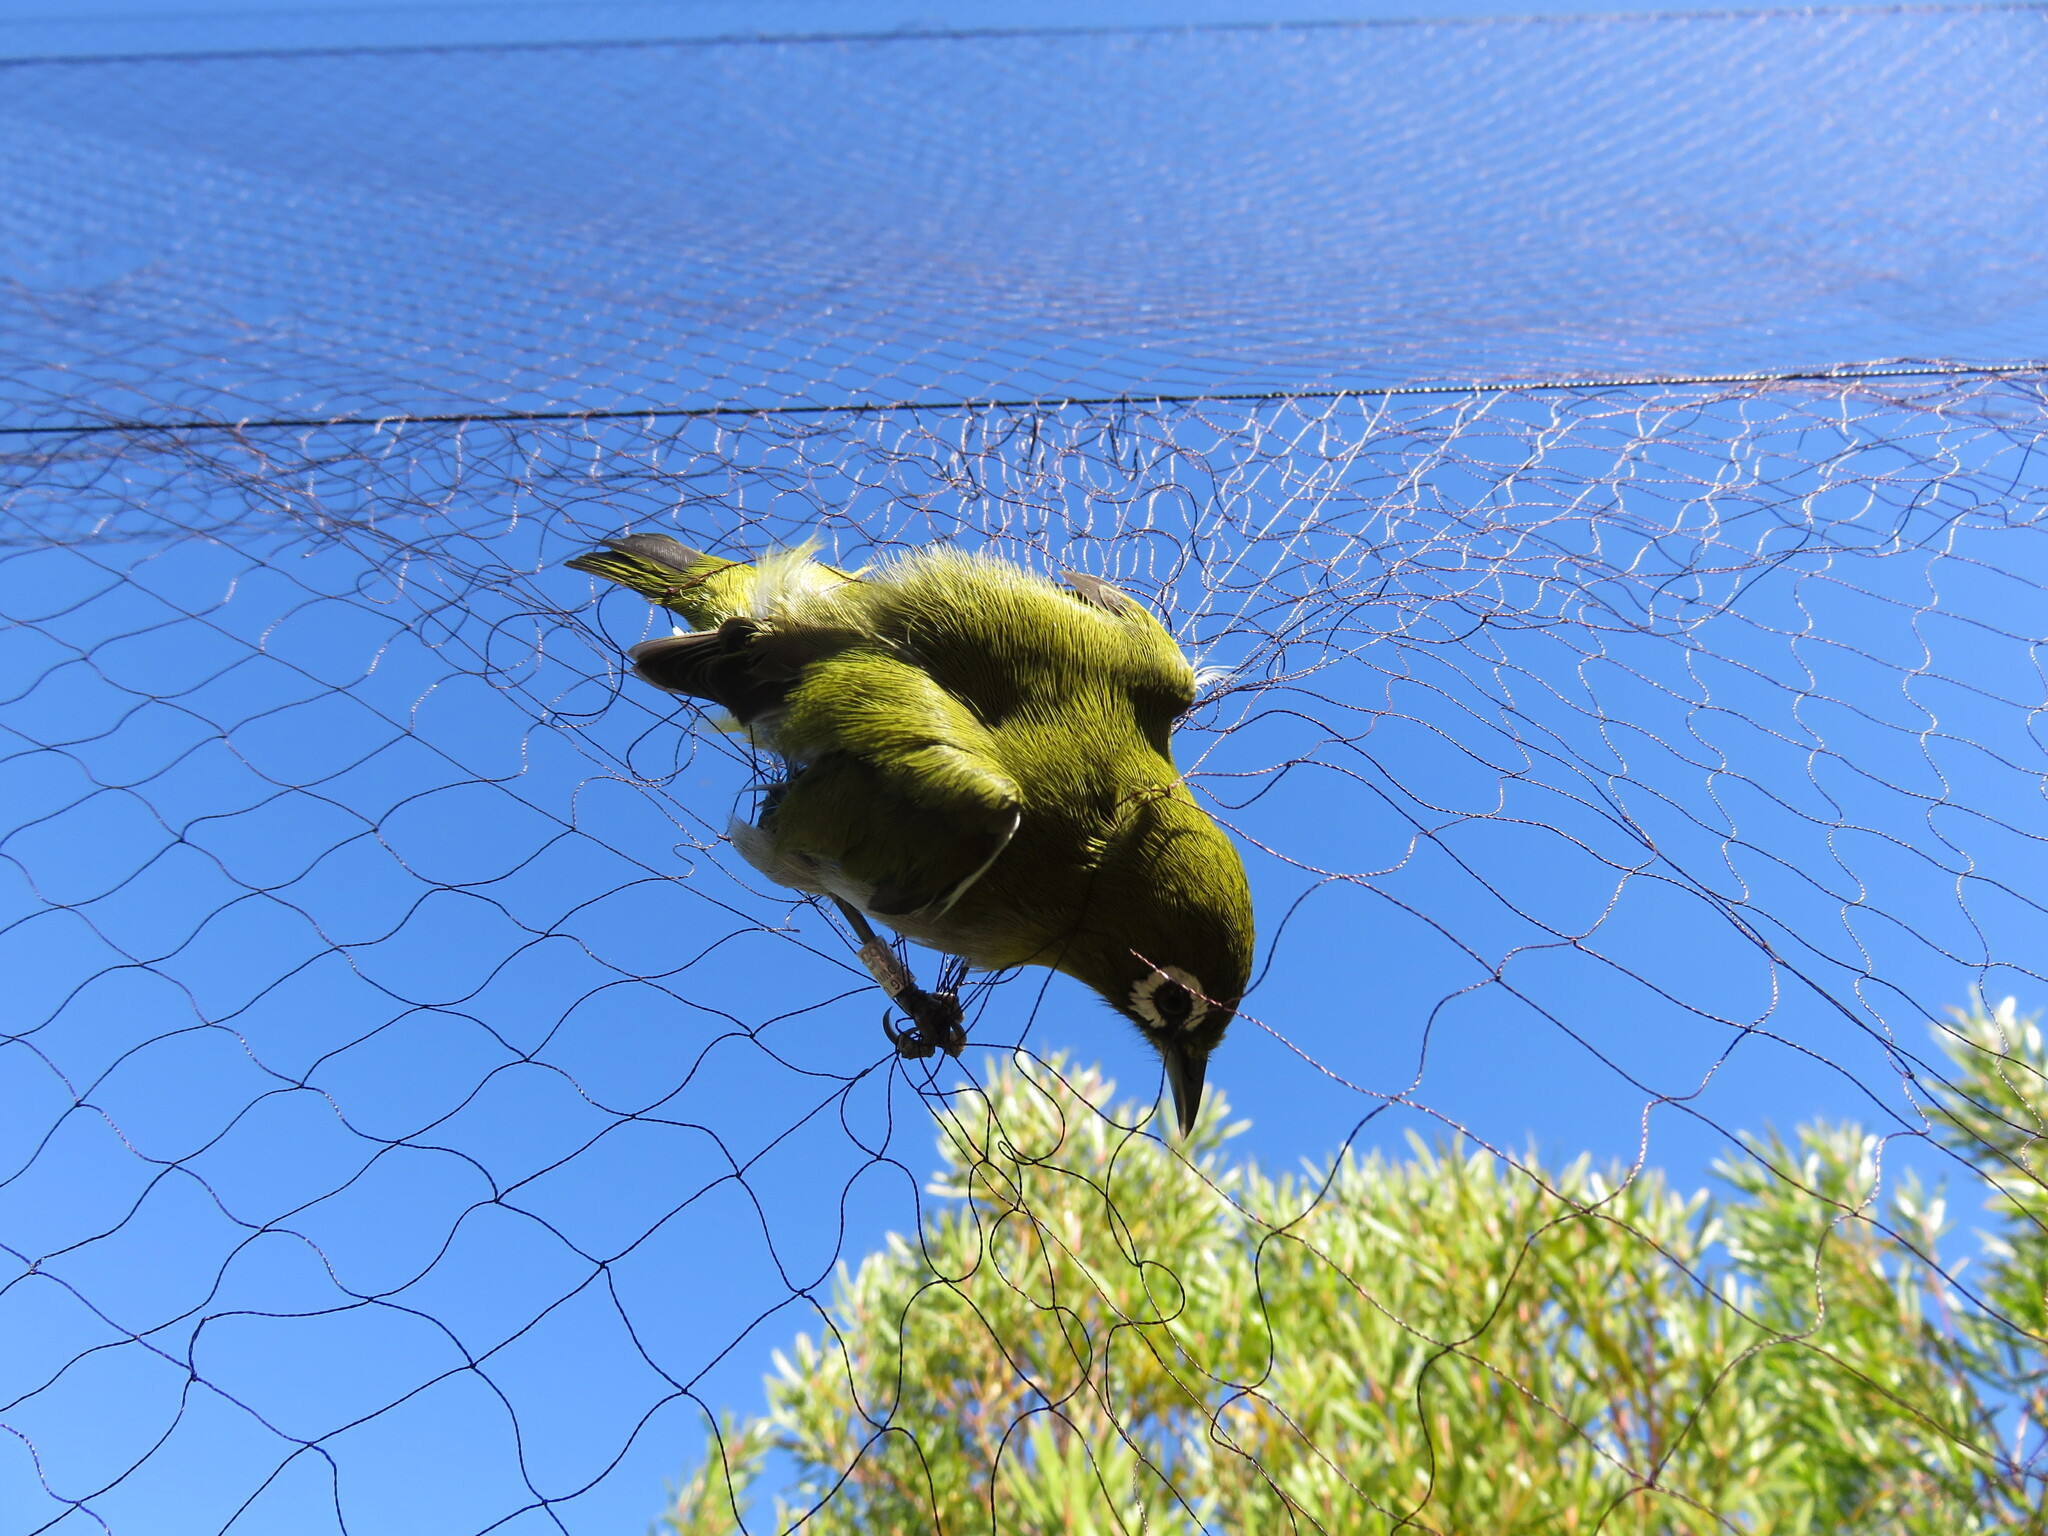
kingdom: Animalia
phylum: Chordata
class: Aves
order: Passeriformes
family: Zosteropidae
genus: Zosterops
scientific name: Zosterops virens
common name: Cape white-eye
